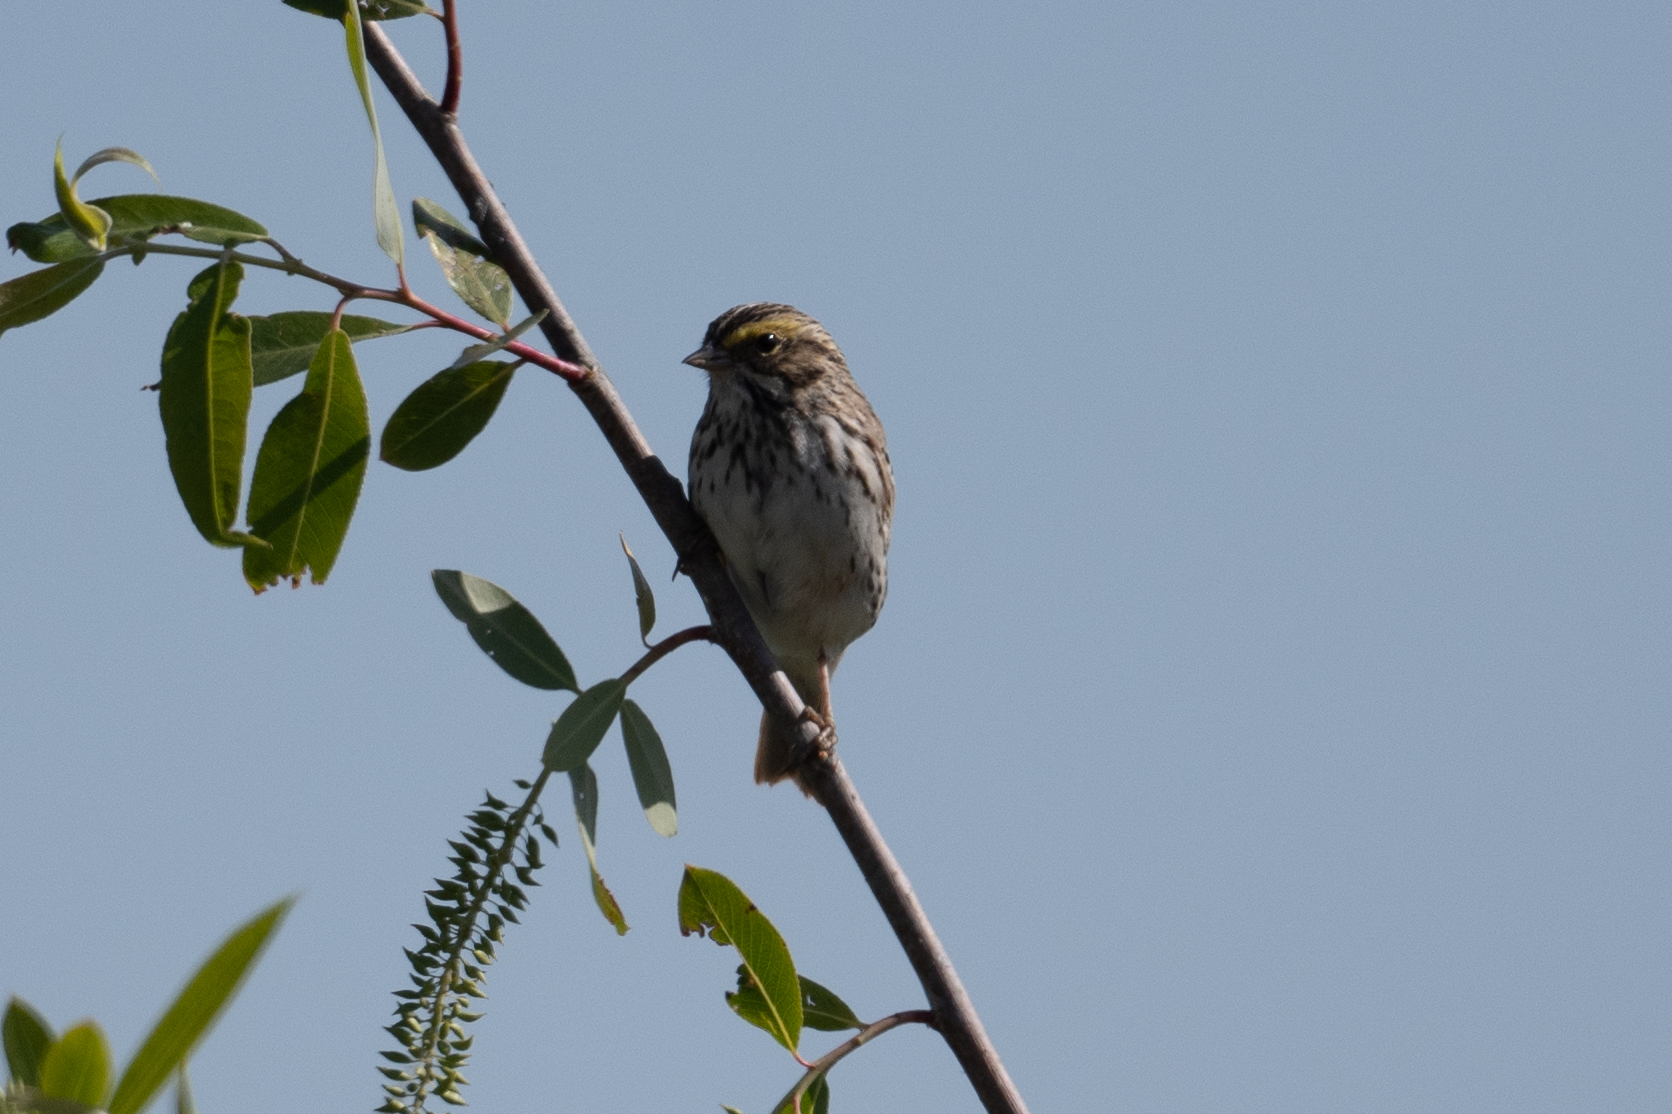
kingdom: Animalia
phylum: Chordata
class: Aves
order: Passeriformes
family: Passerellidae
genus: Passerculus
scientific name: Passerculus sandwichensis
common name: Savannah sparrow
